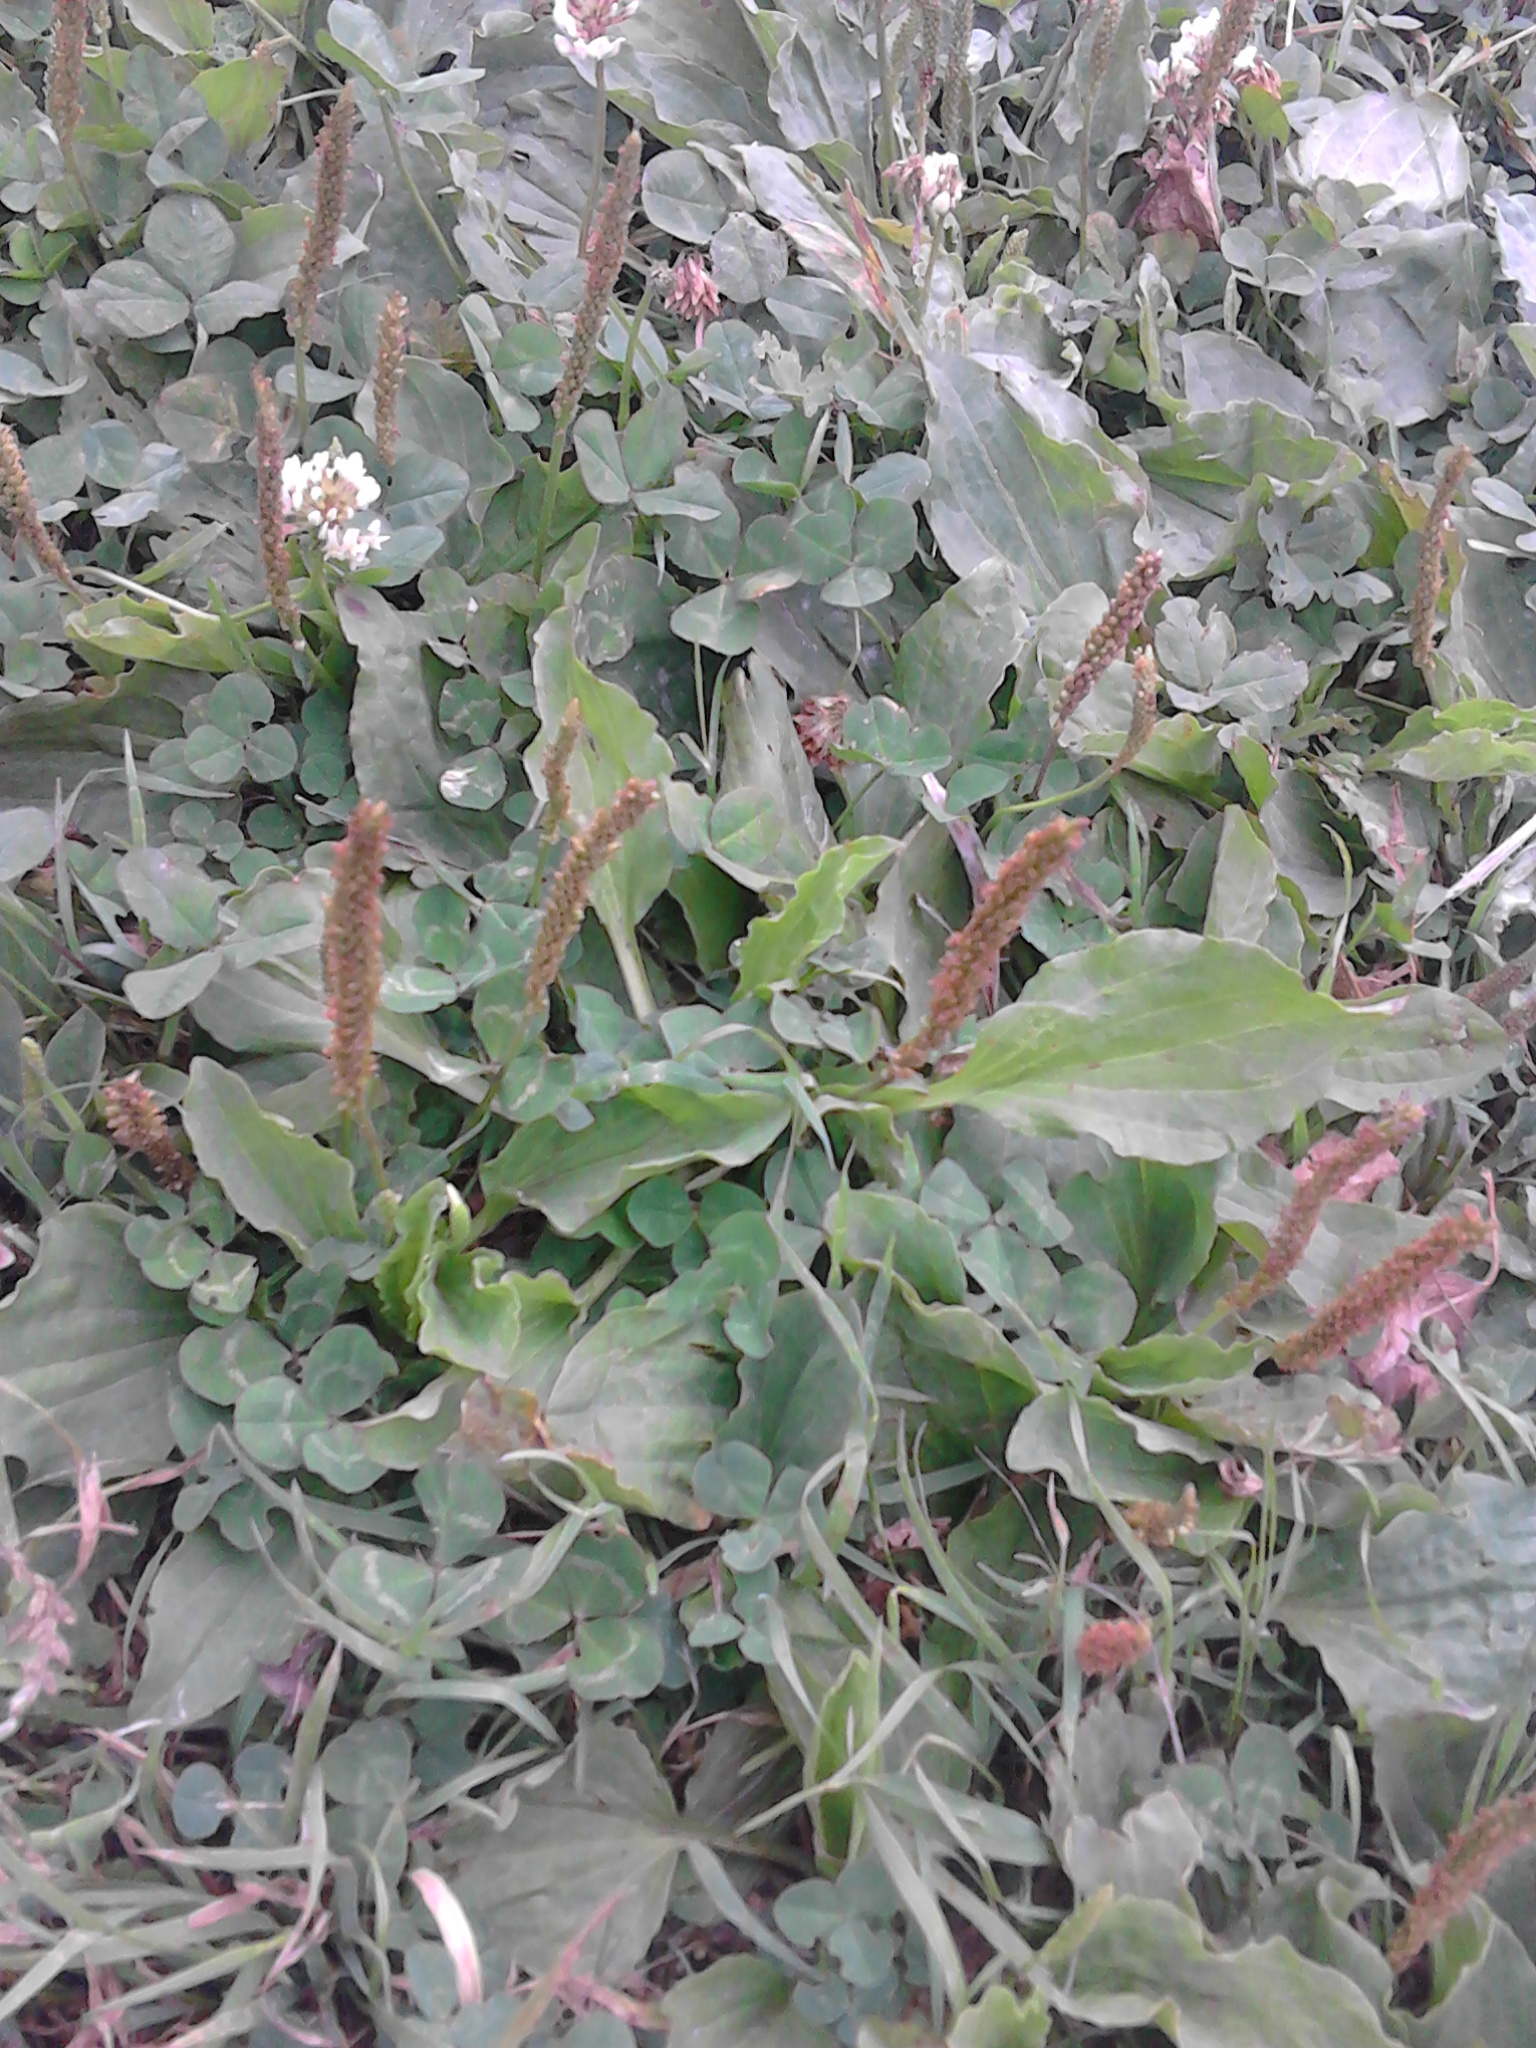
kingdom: Plantae
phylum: Tracheophyta
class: Magnoliopsida
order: Lamiales
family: Plantaginaceae
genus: Plantago
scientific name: Plantago major
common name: Common plantain
